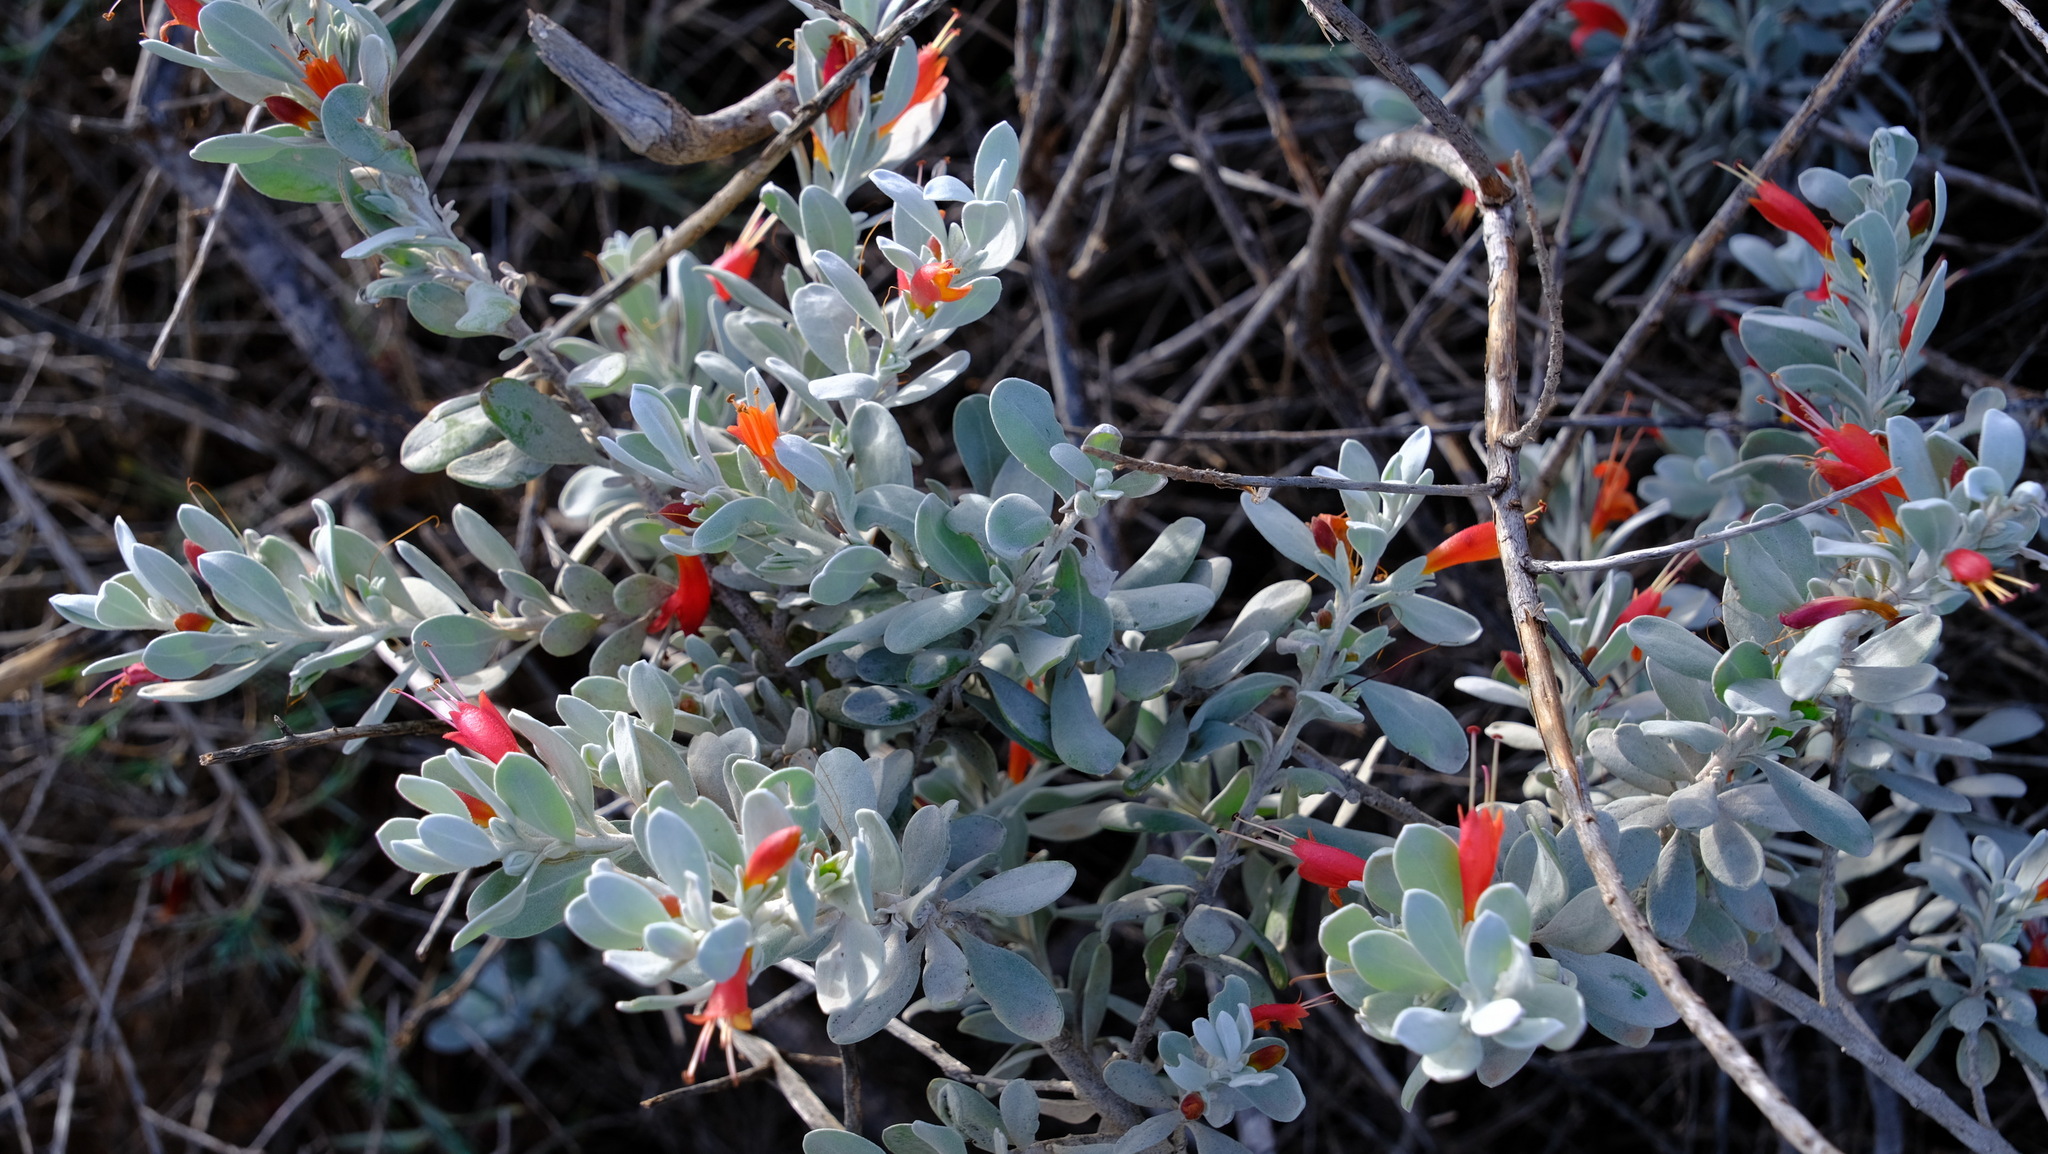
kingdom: Plantae
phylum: Tracheophyta
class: Magnoliopsida
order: Lamiales
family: Scrophulariaceae
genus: Eremophila
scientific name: Eremophila glabra
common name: Black-fuchsia
